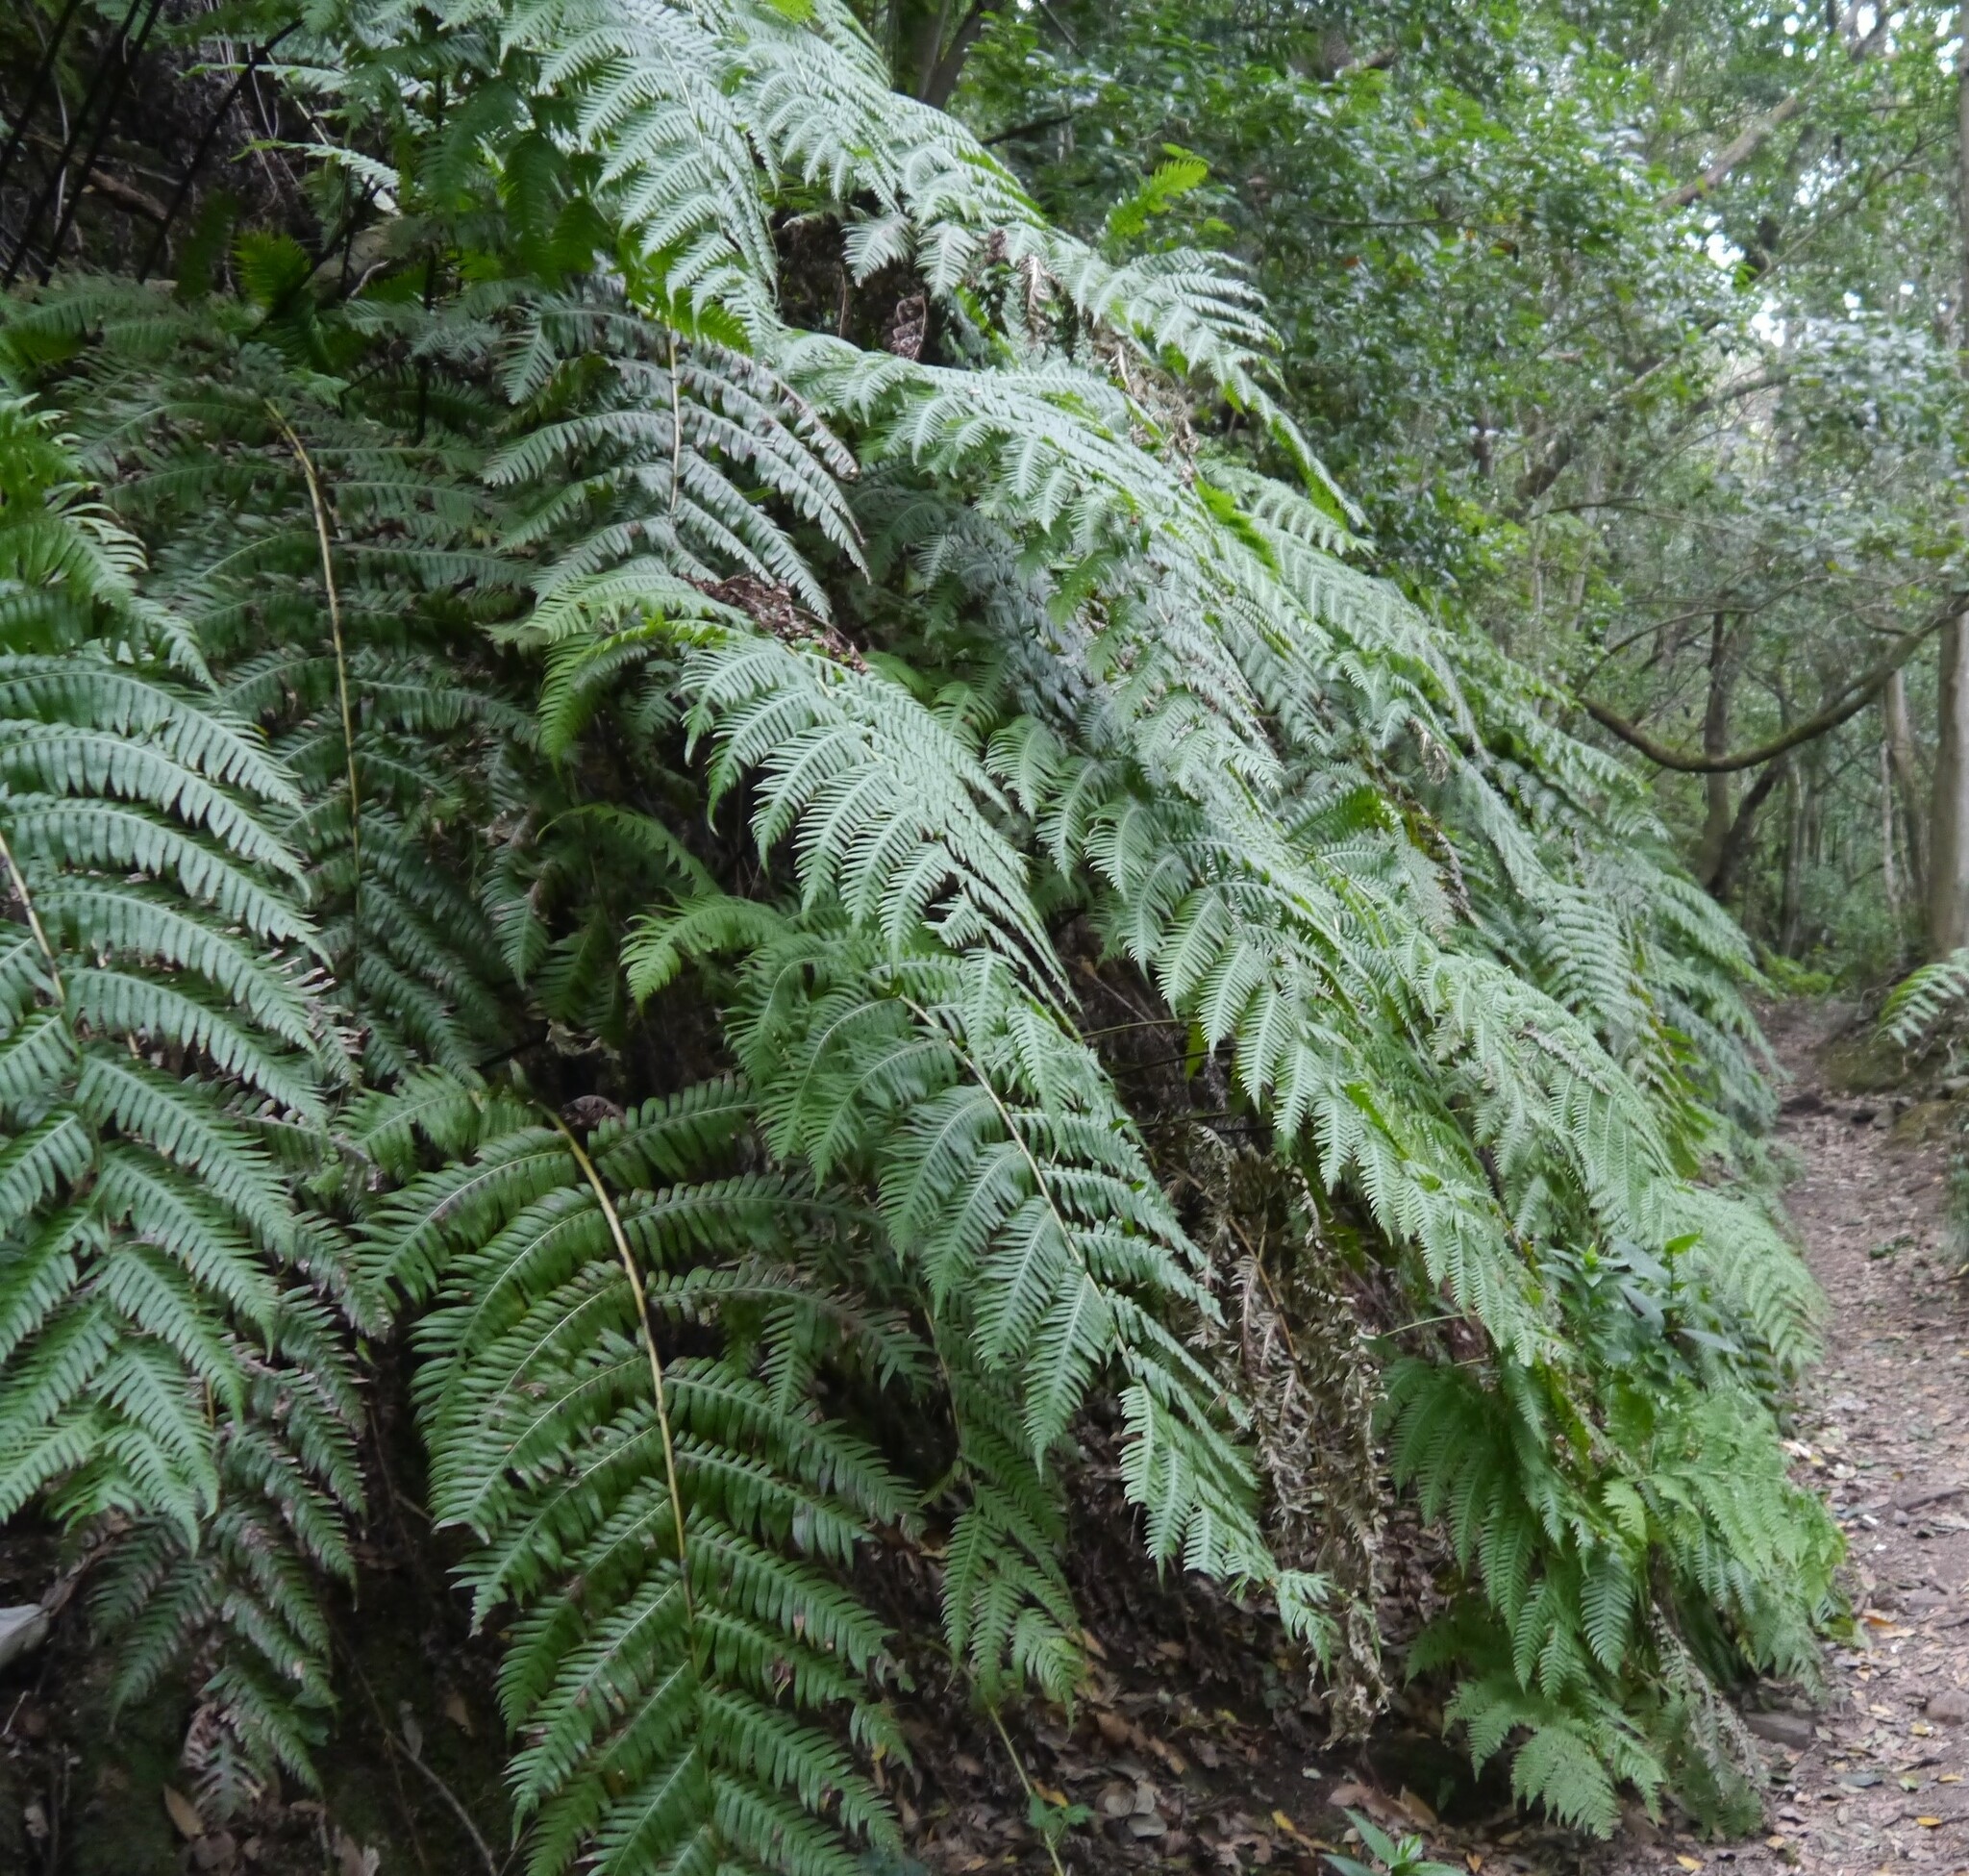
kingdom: Plantae
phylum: Tracheophyta
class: Polypodiopsida
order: Polypodiales
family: Blechnaceae
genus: Woodwardia
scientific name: Woodwardia radicans
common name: Rooting chainfern
